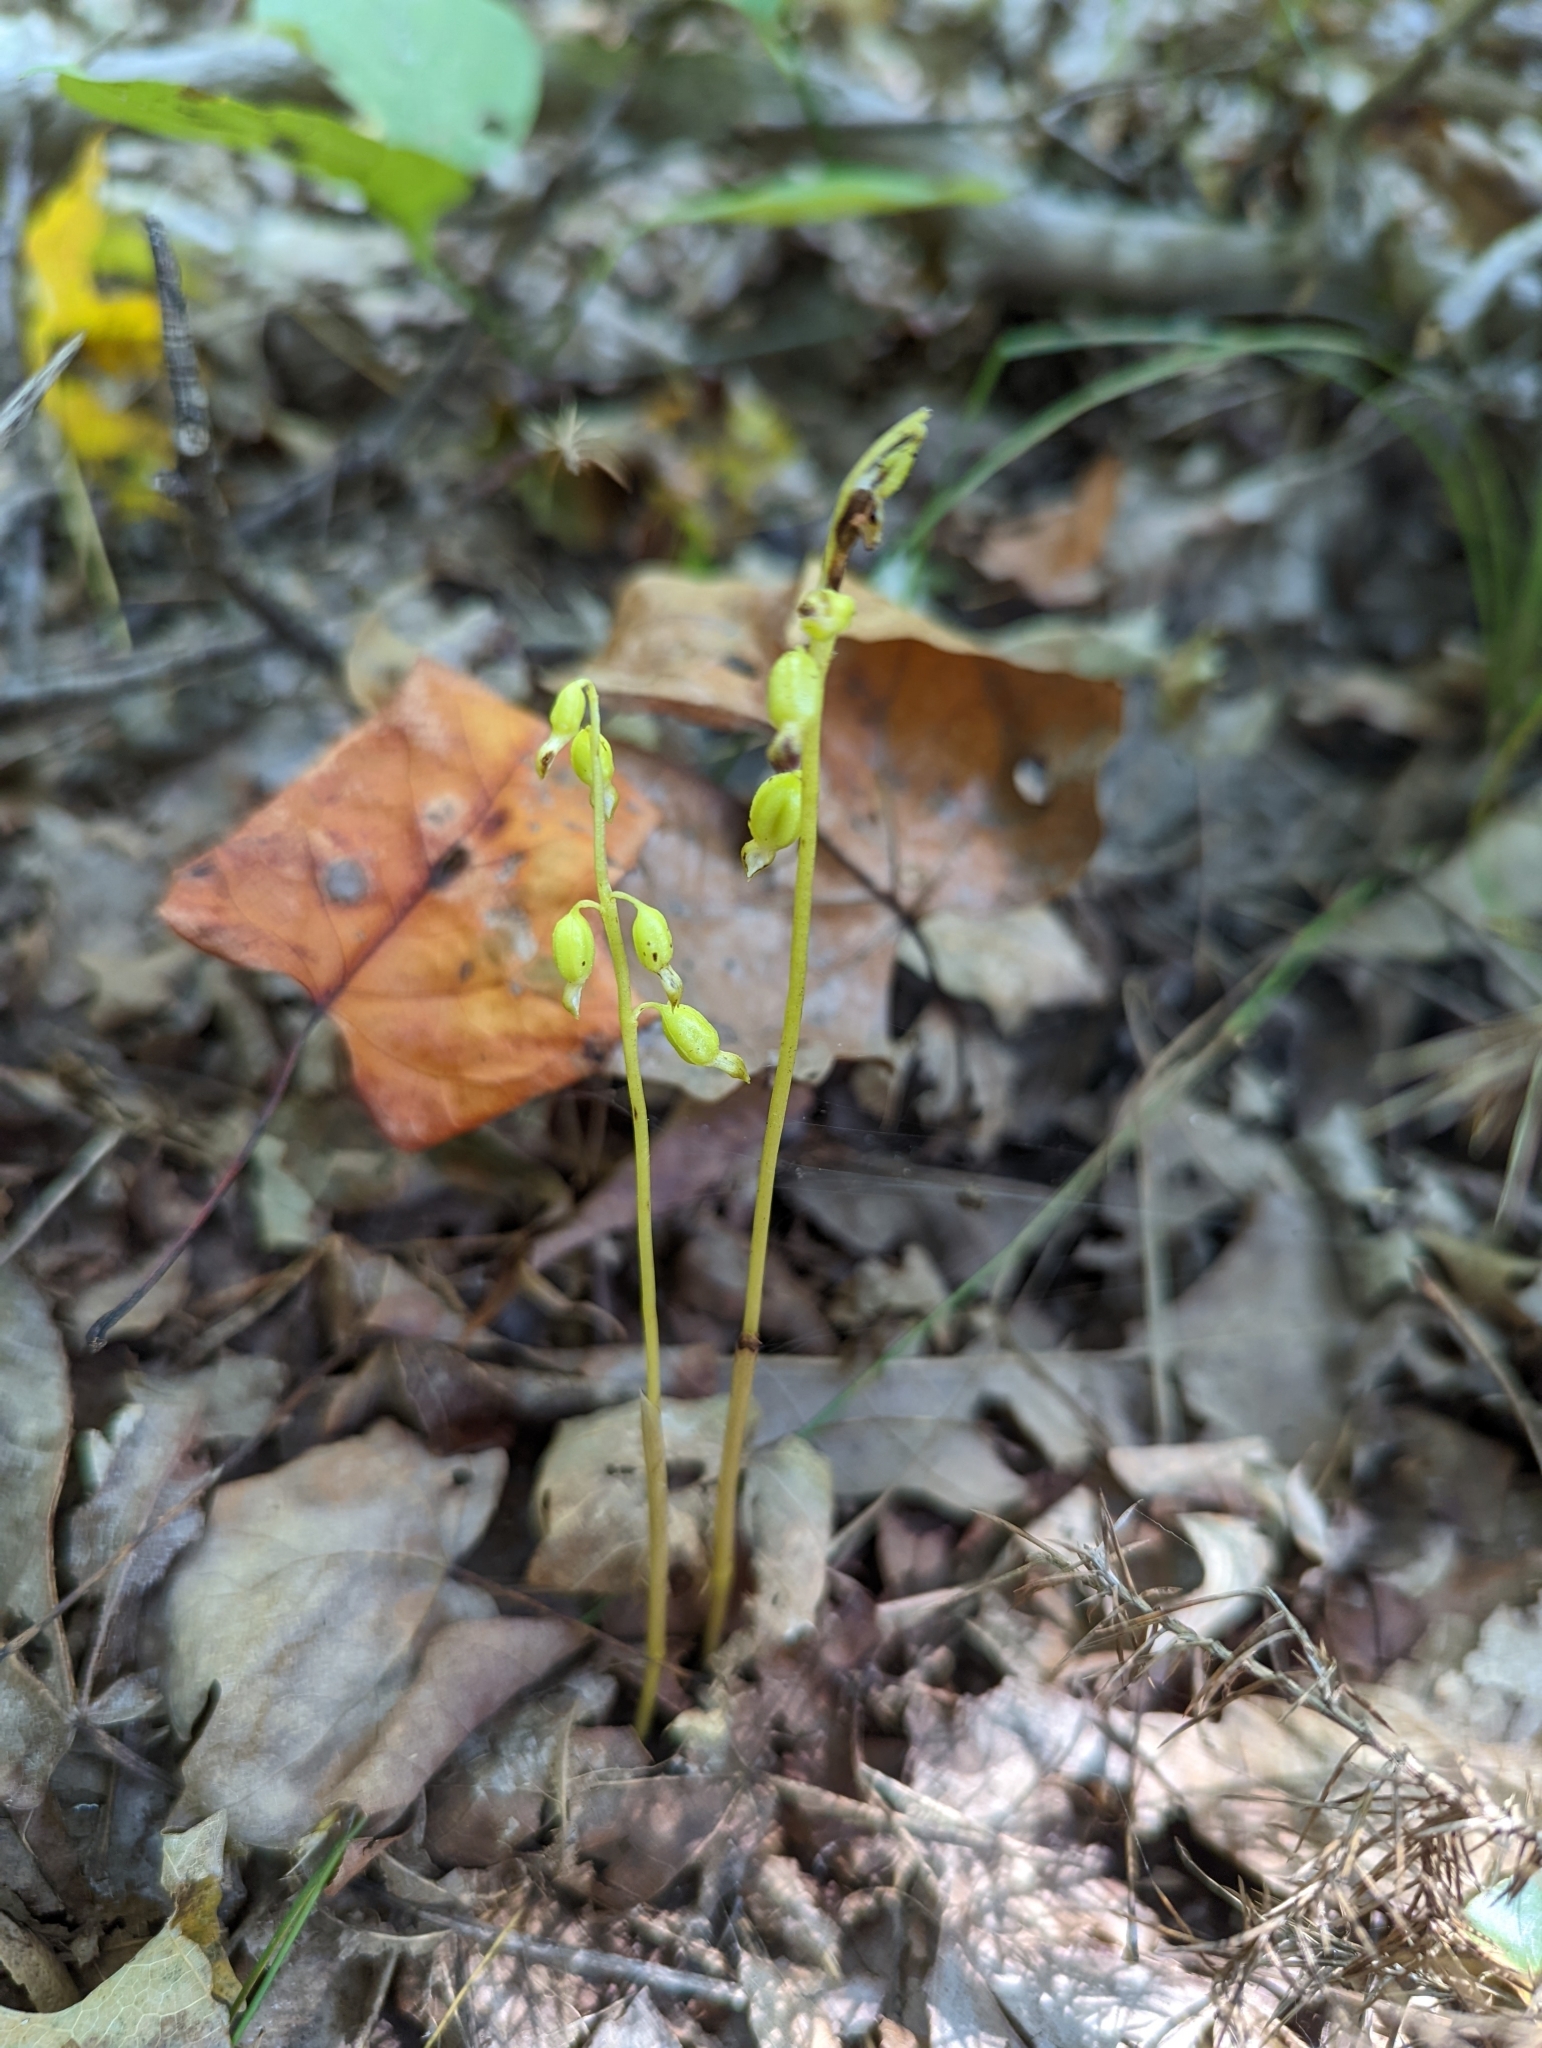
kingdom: Plantae
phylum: Tracheophyta
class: Liliopsida
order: Asparagales
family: Orchidaceae
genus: Corallorhiza
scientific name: Corallorhiza odontorhiza
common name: Autumn coralroot
